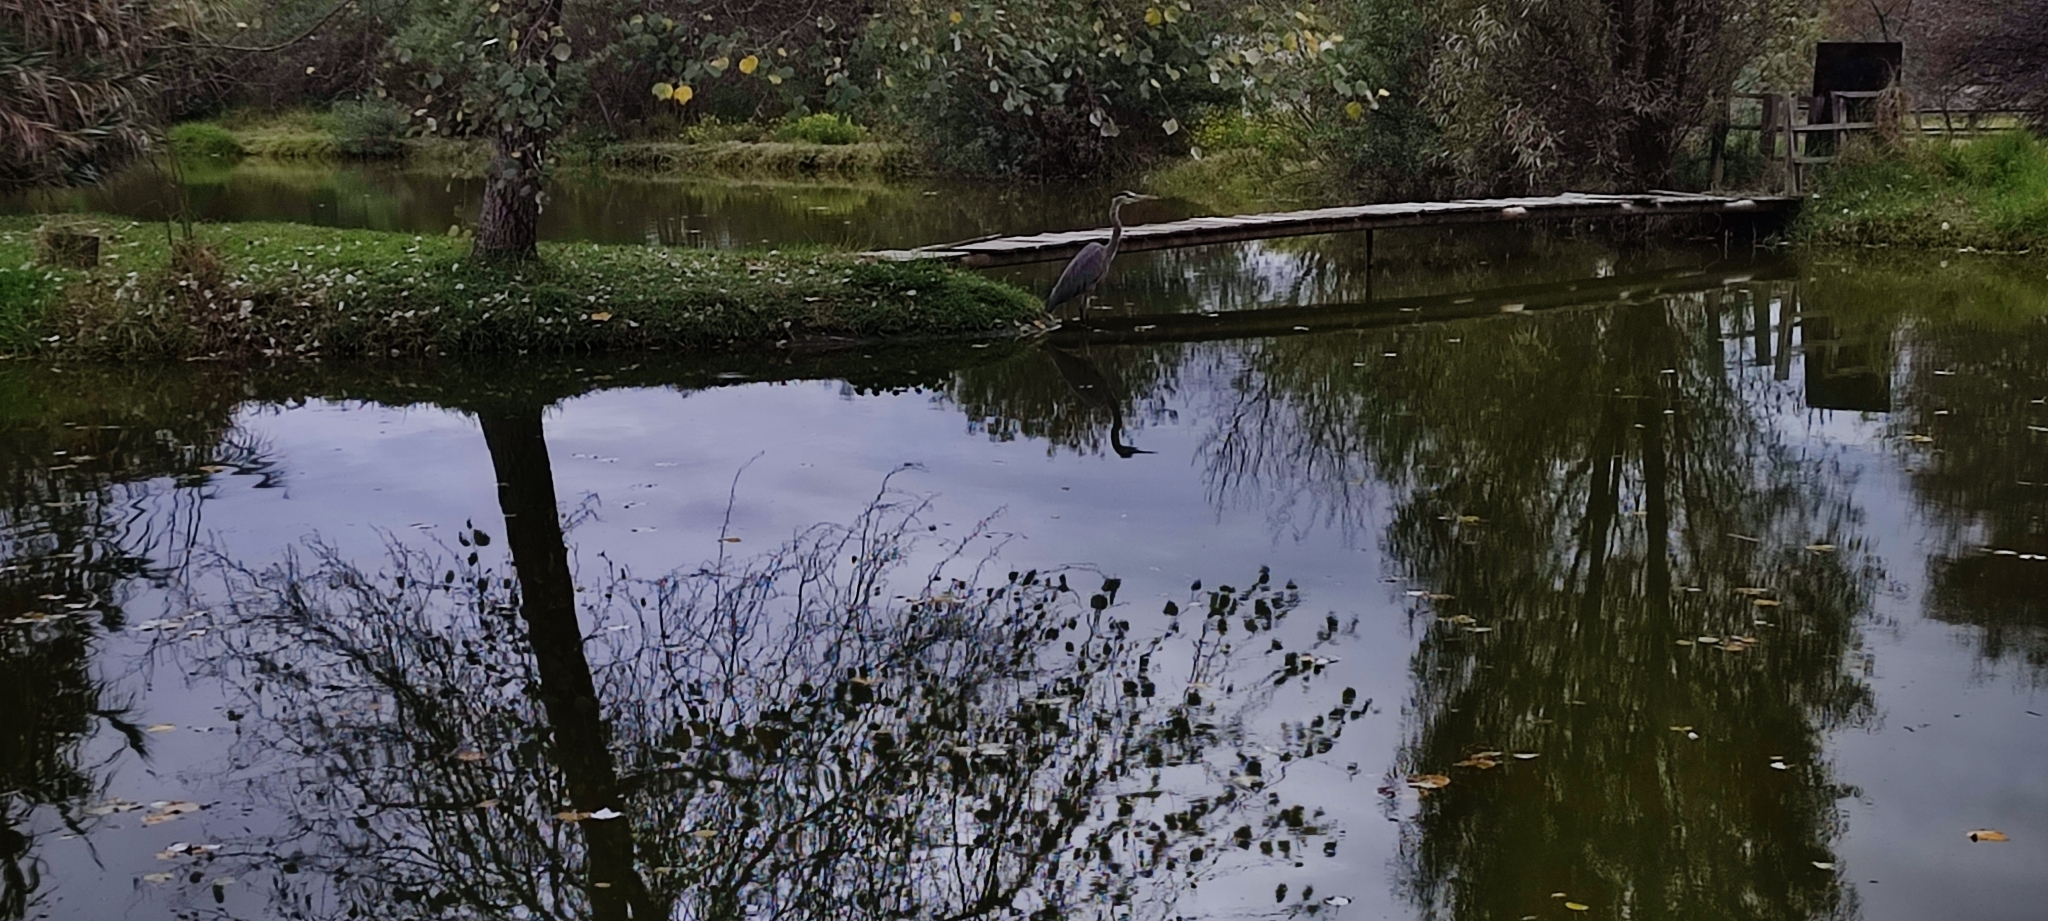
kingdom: Animalia
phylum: Chordata
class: Aves
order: Pelecaniformes
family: Ardeidae
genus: Ardea
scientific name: Ardea herodias
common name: Great blue heron
